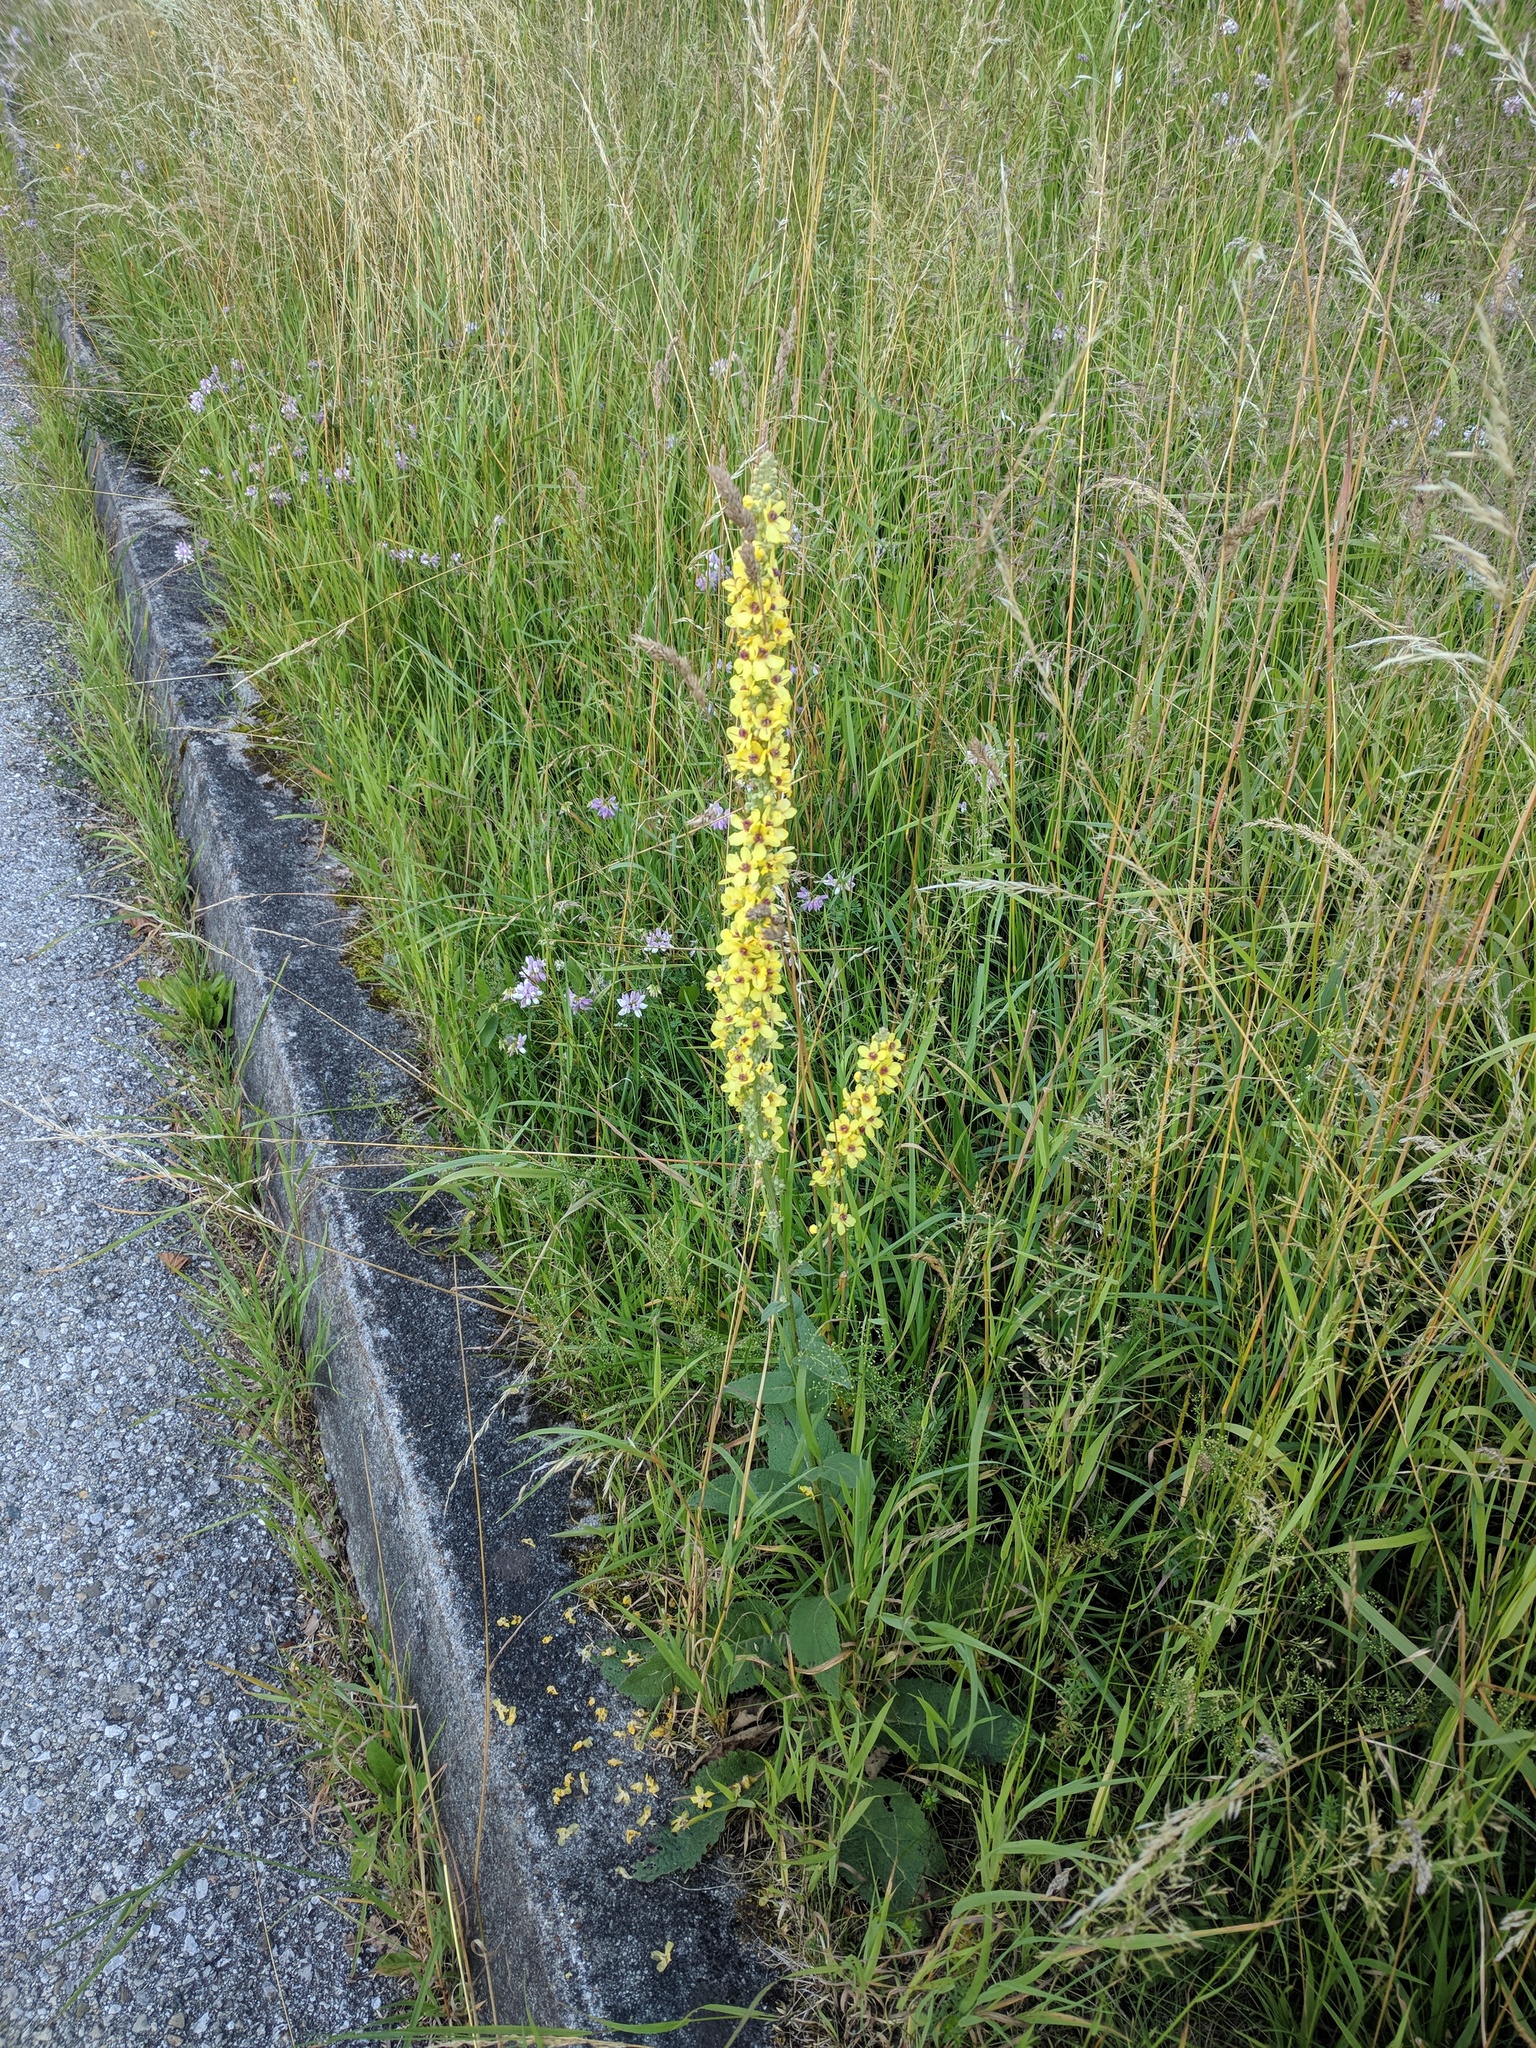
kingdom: Plantae
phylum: Tracheophyta
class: Magnoliopsida
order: Lamiales
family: Scrophulariaceae
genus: Verbascum
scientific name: Verbascum nigrum
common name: Dark mullein
